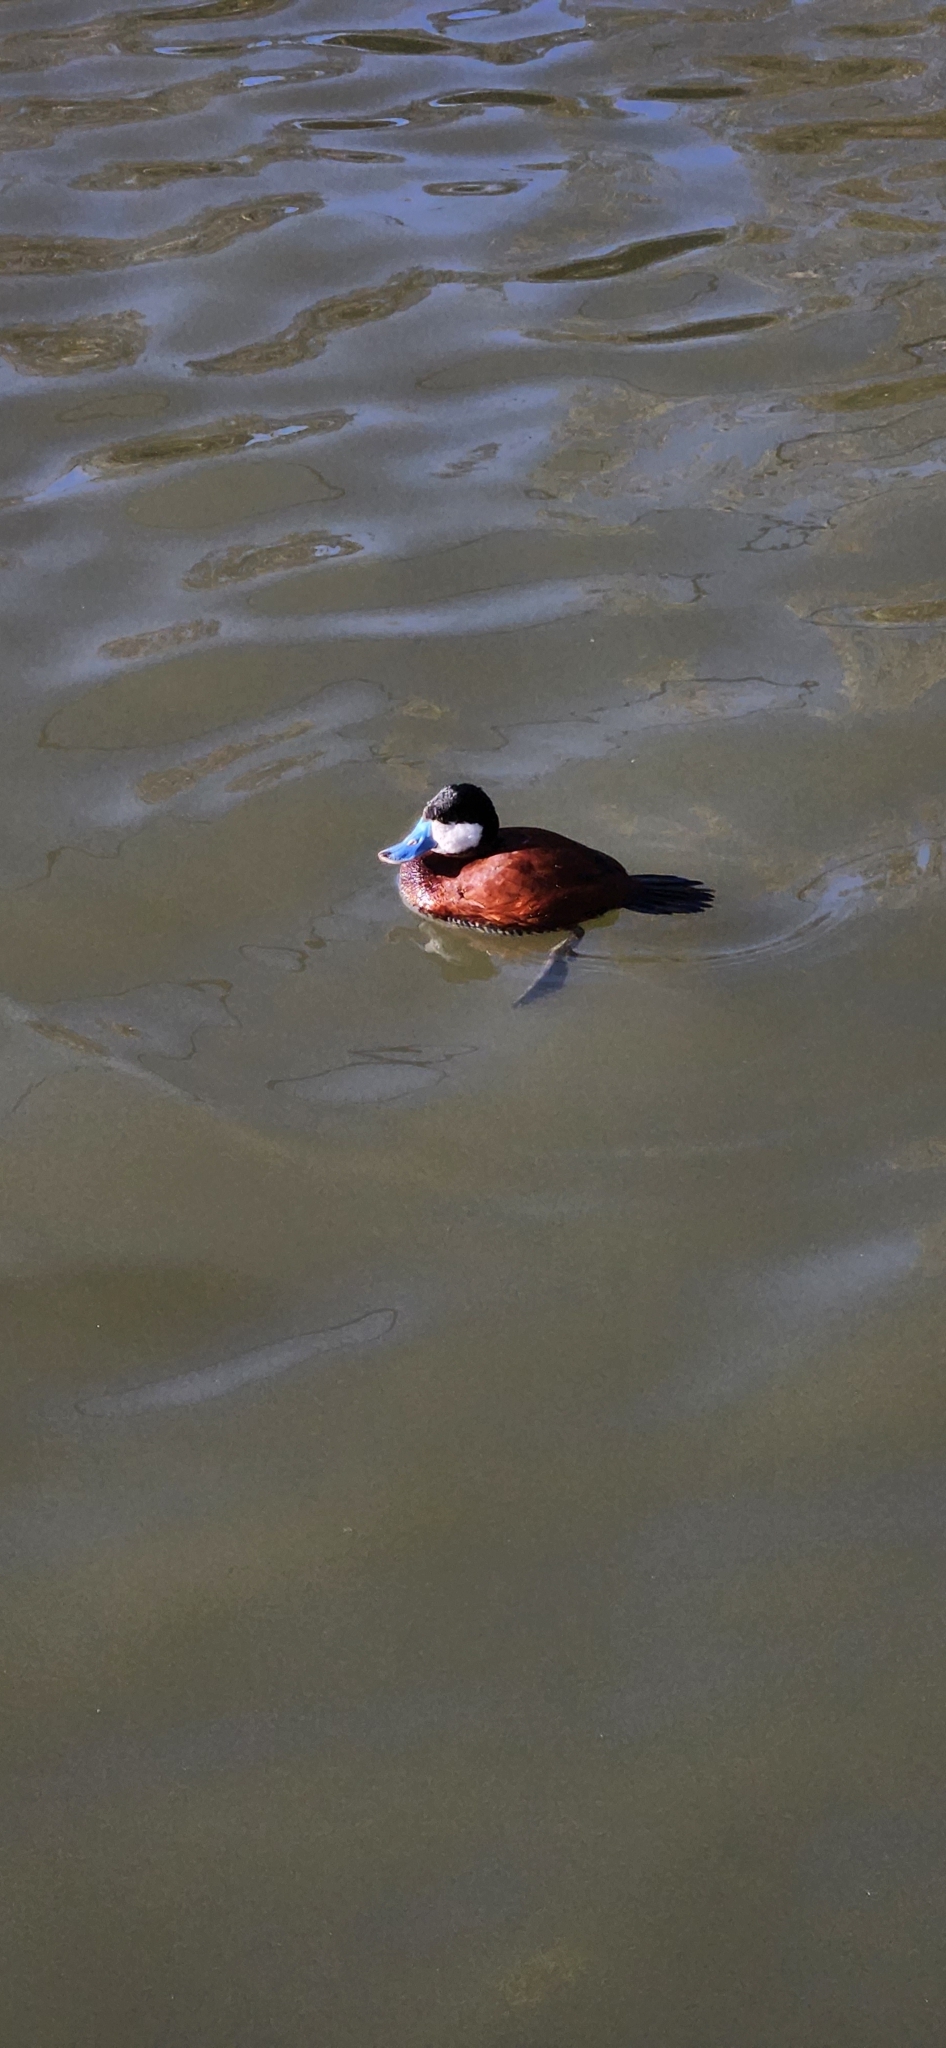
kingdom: Animalia
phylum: Chordata
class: Aves
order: Anseriformes
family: Anatidae
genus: Oxyura
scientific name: Oxyura jamaicensis
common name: Ruddy duck
